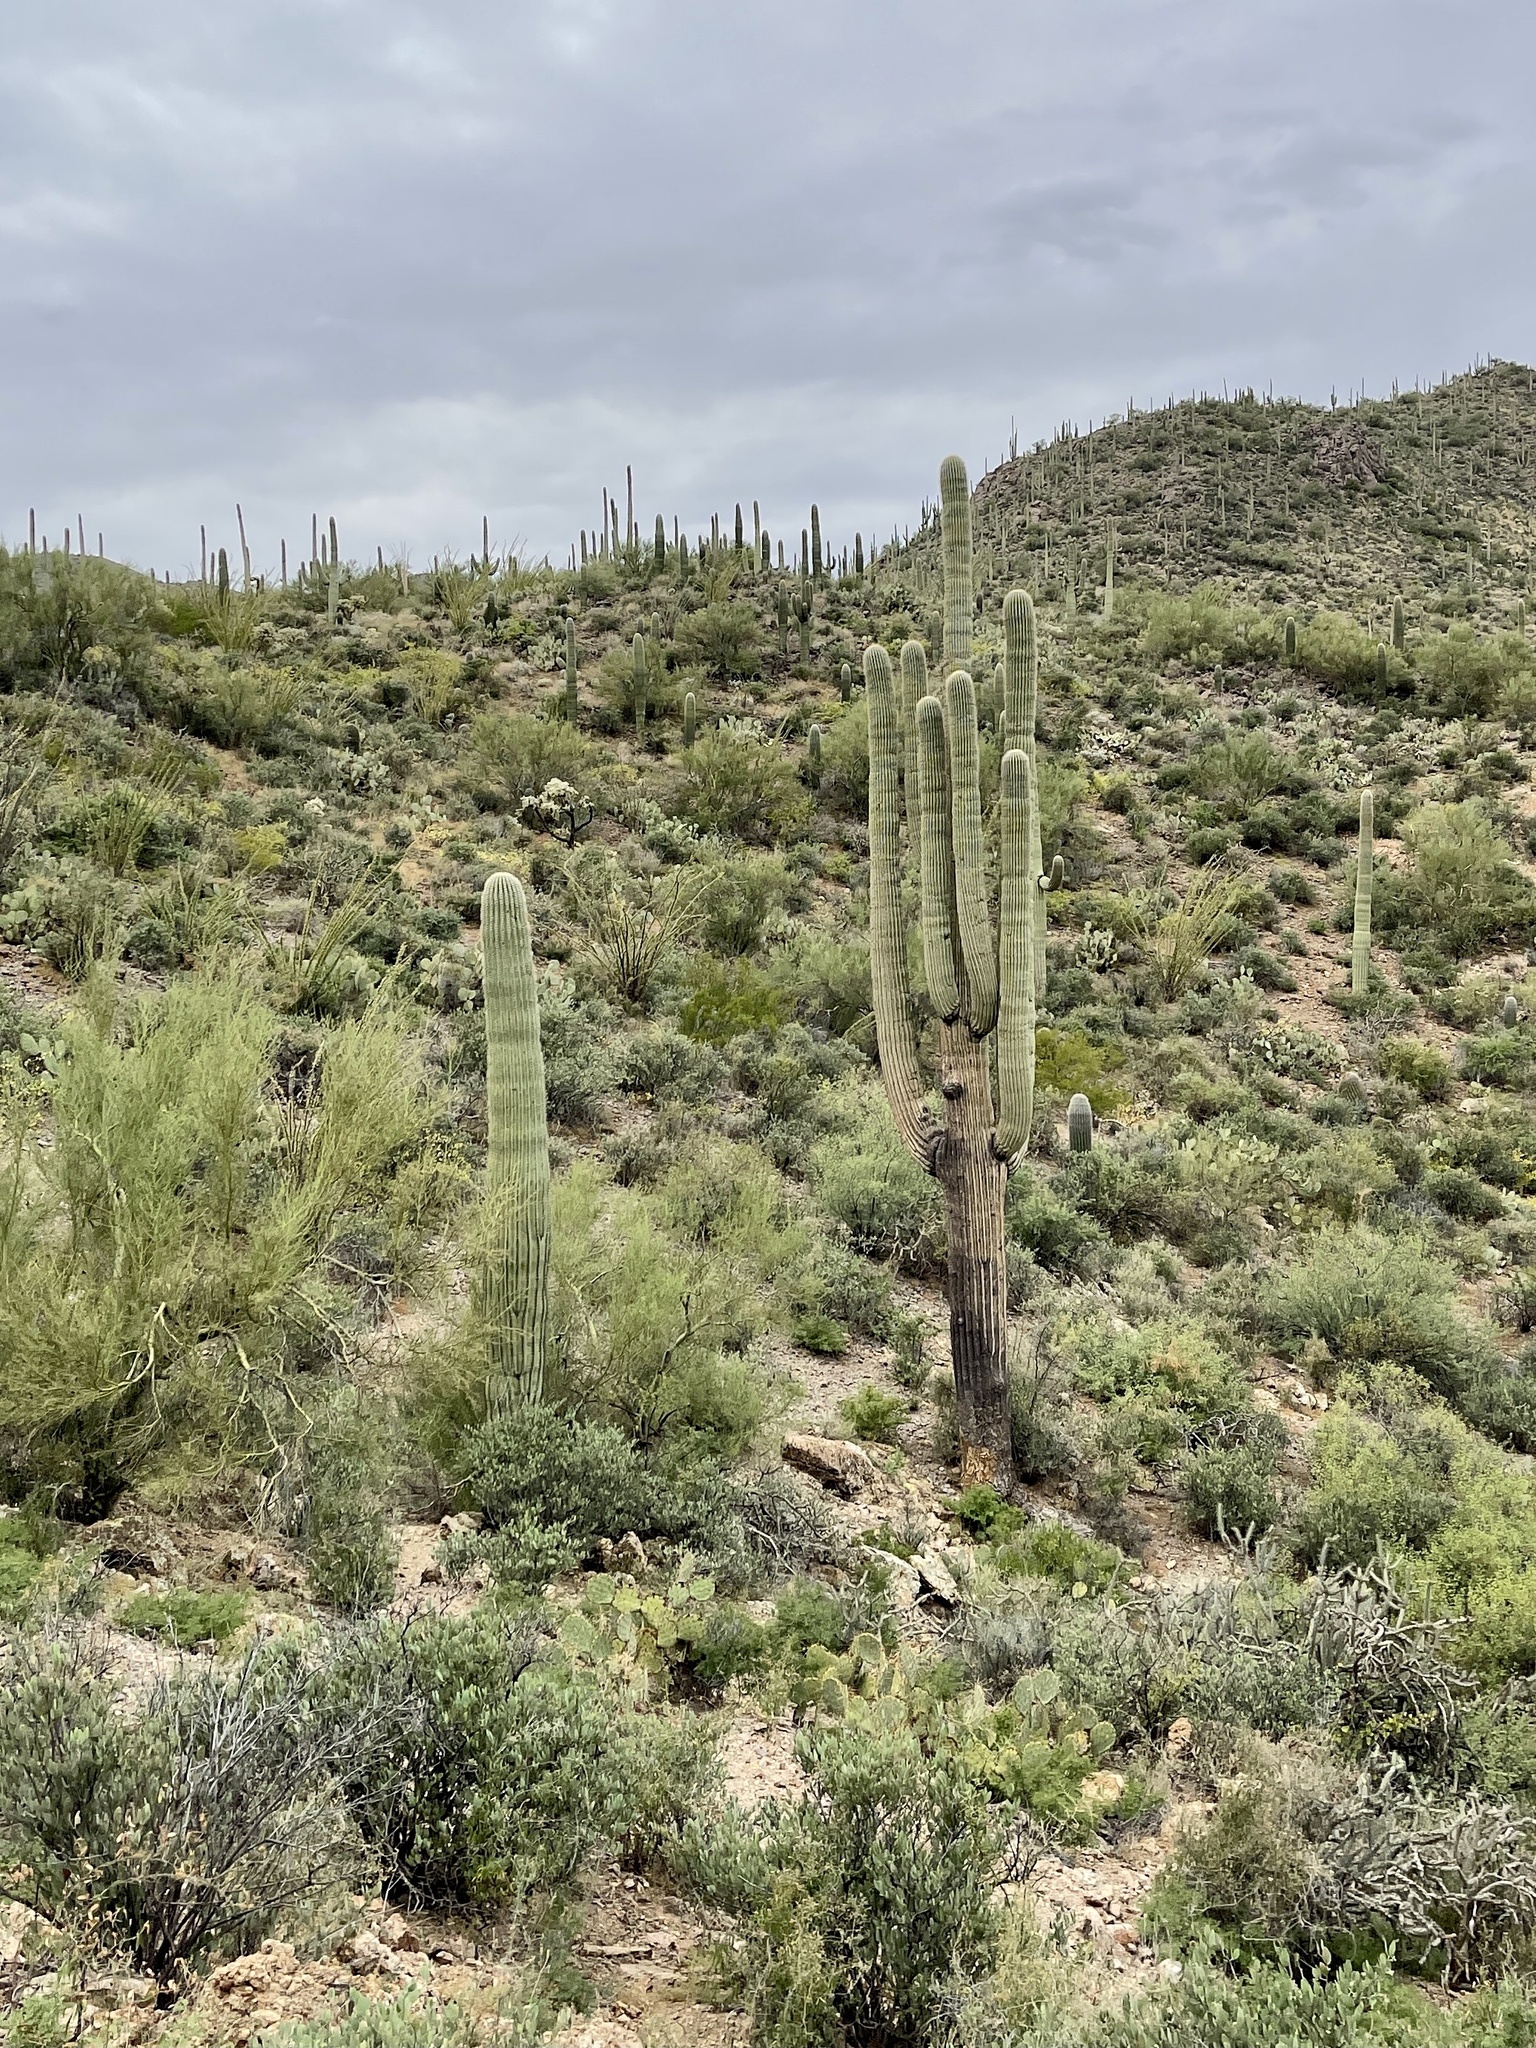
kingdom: Plantae
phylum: Tracheophyta
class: Magnoliopsida
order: Caryophyllales
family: Cactaceae
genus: Carnegiea
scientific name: Carnegiea gigantea
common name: Saguaro
